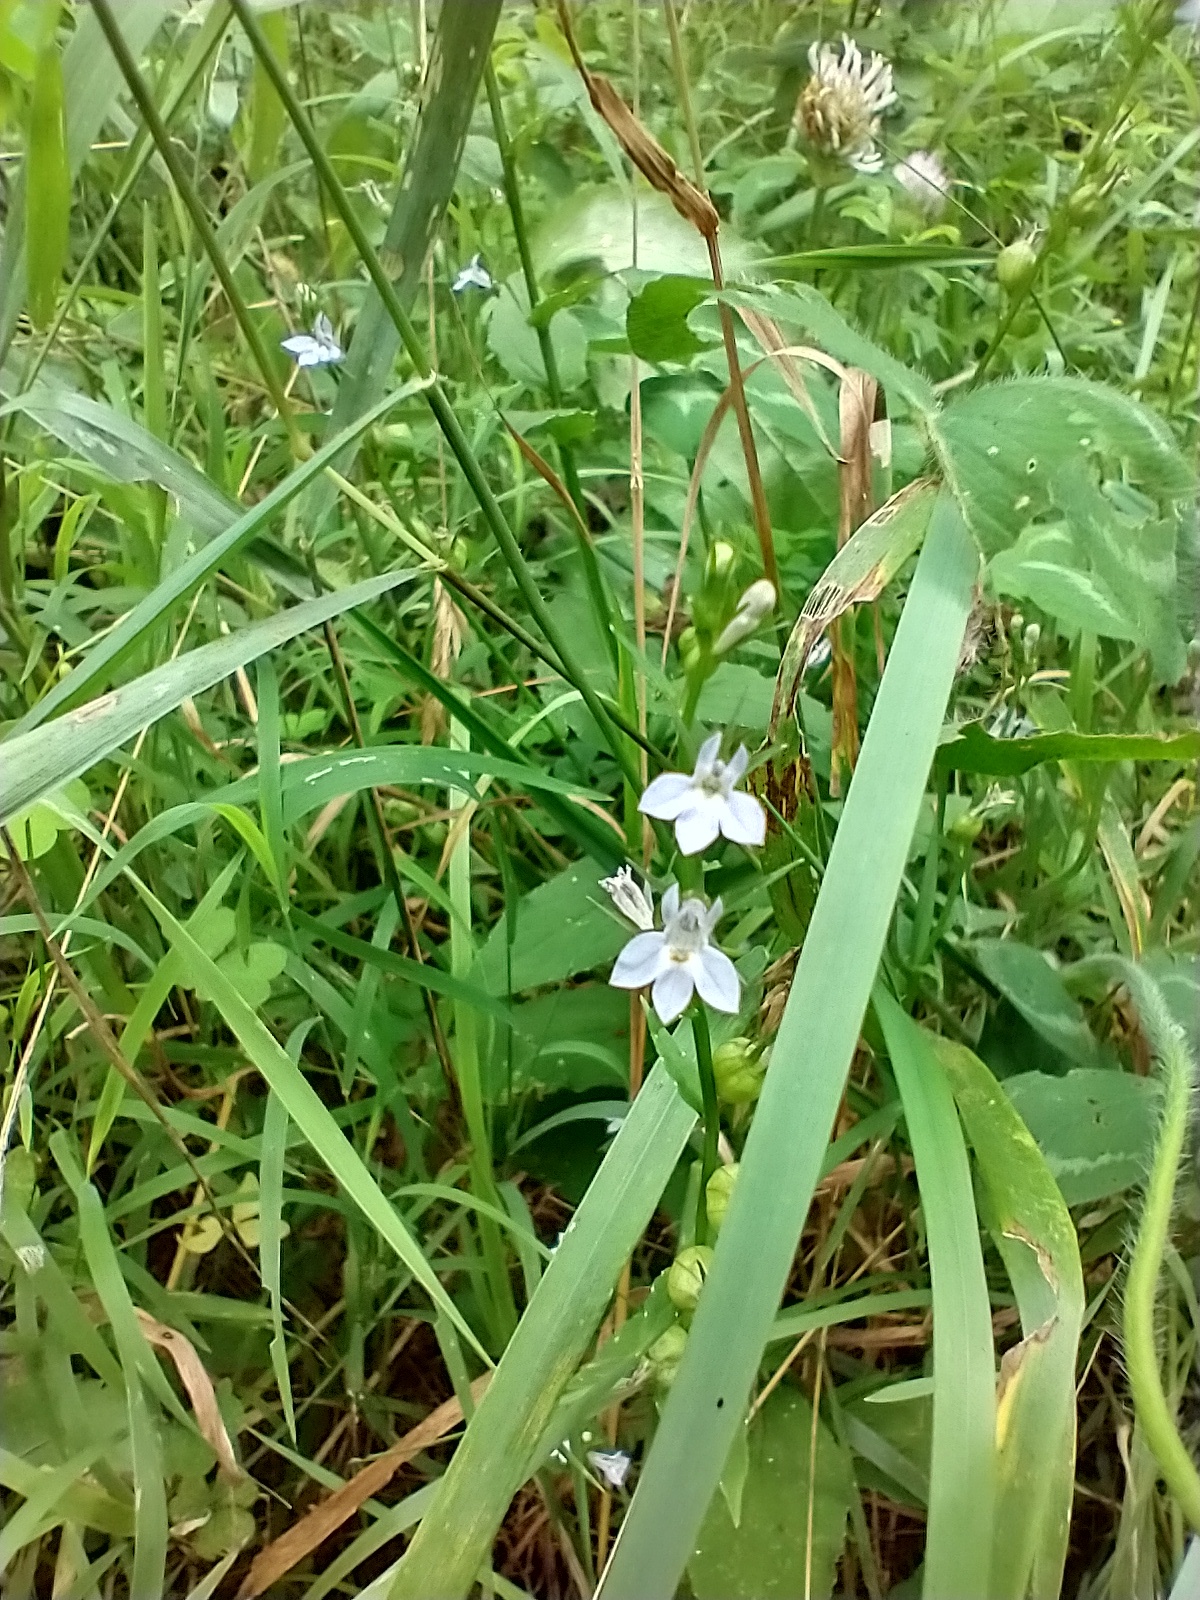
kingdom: Plantae
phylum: Tracheophyta
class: Magnoliopsida
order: Asterales
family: Campanulaceae
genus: Lobelia
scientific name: Lobelia inflata
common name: Indian tobacco
